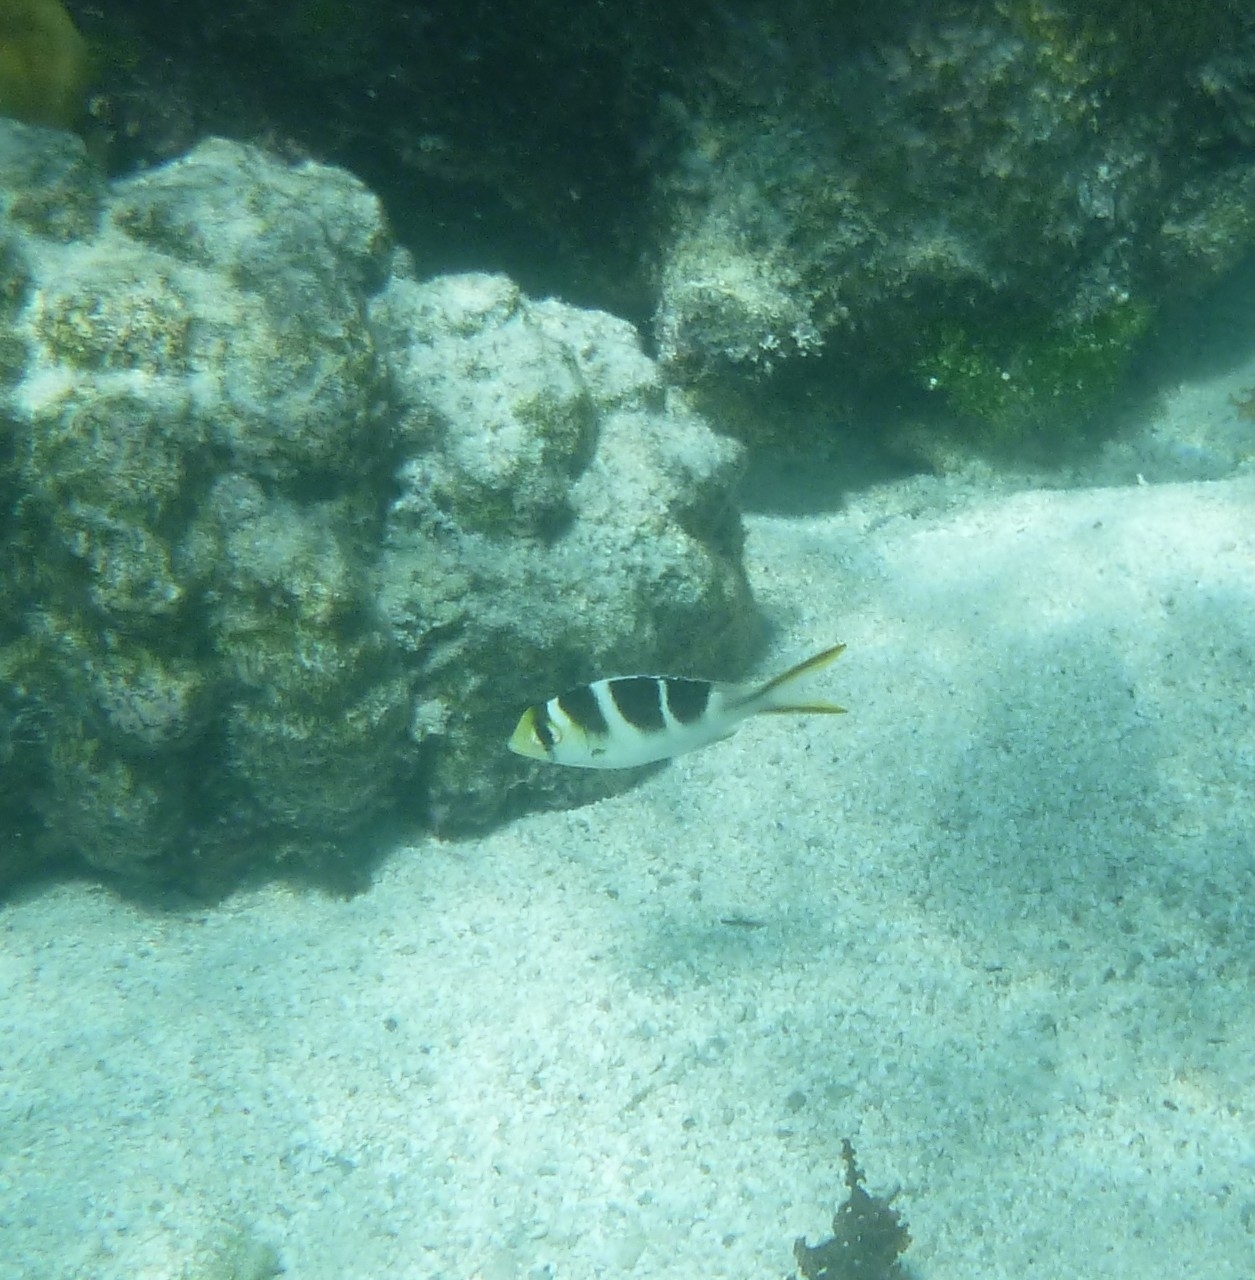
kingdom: Animalia
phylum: Chordata
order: Perciformes
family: Lethrinidae
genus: Monotaxis
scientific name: Monotaxis grandoculis
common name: Bigeye emperor
